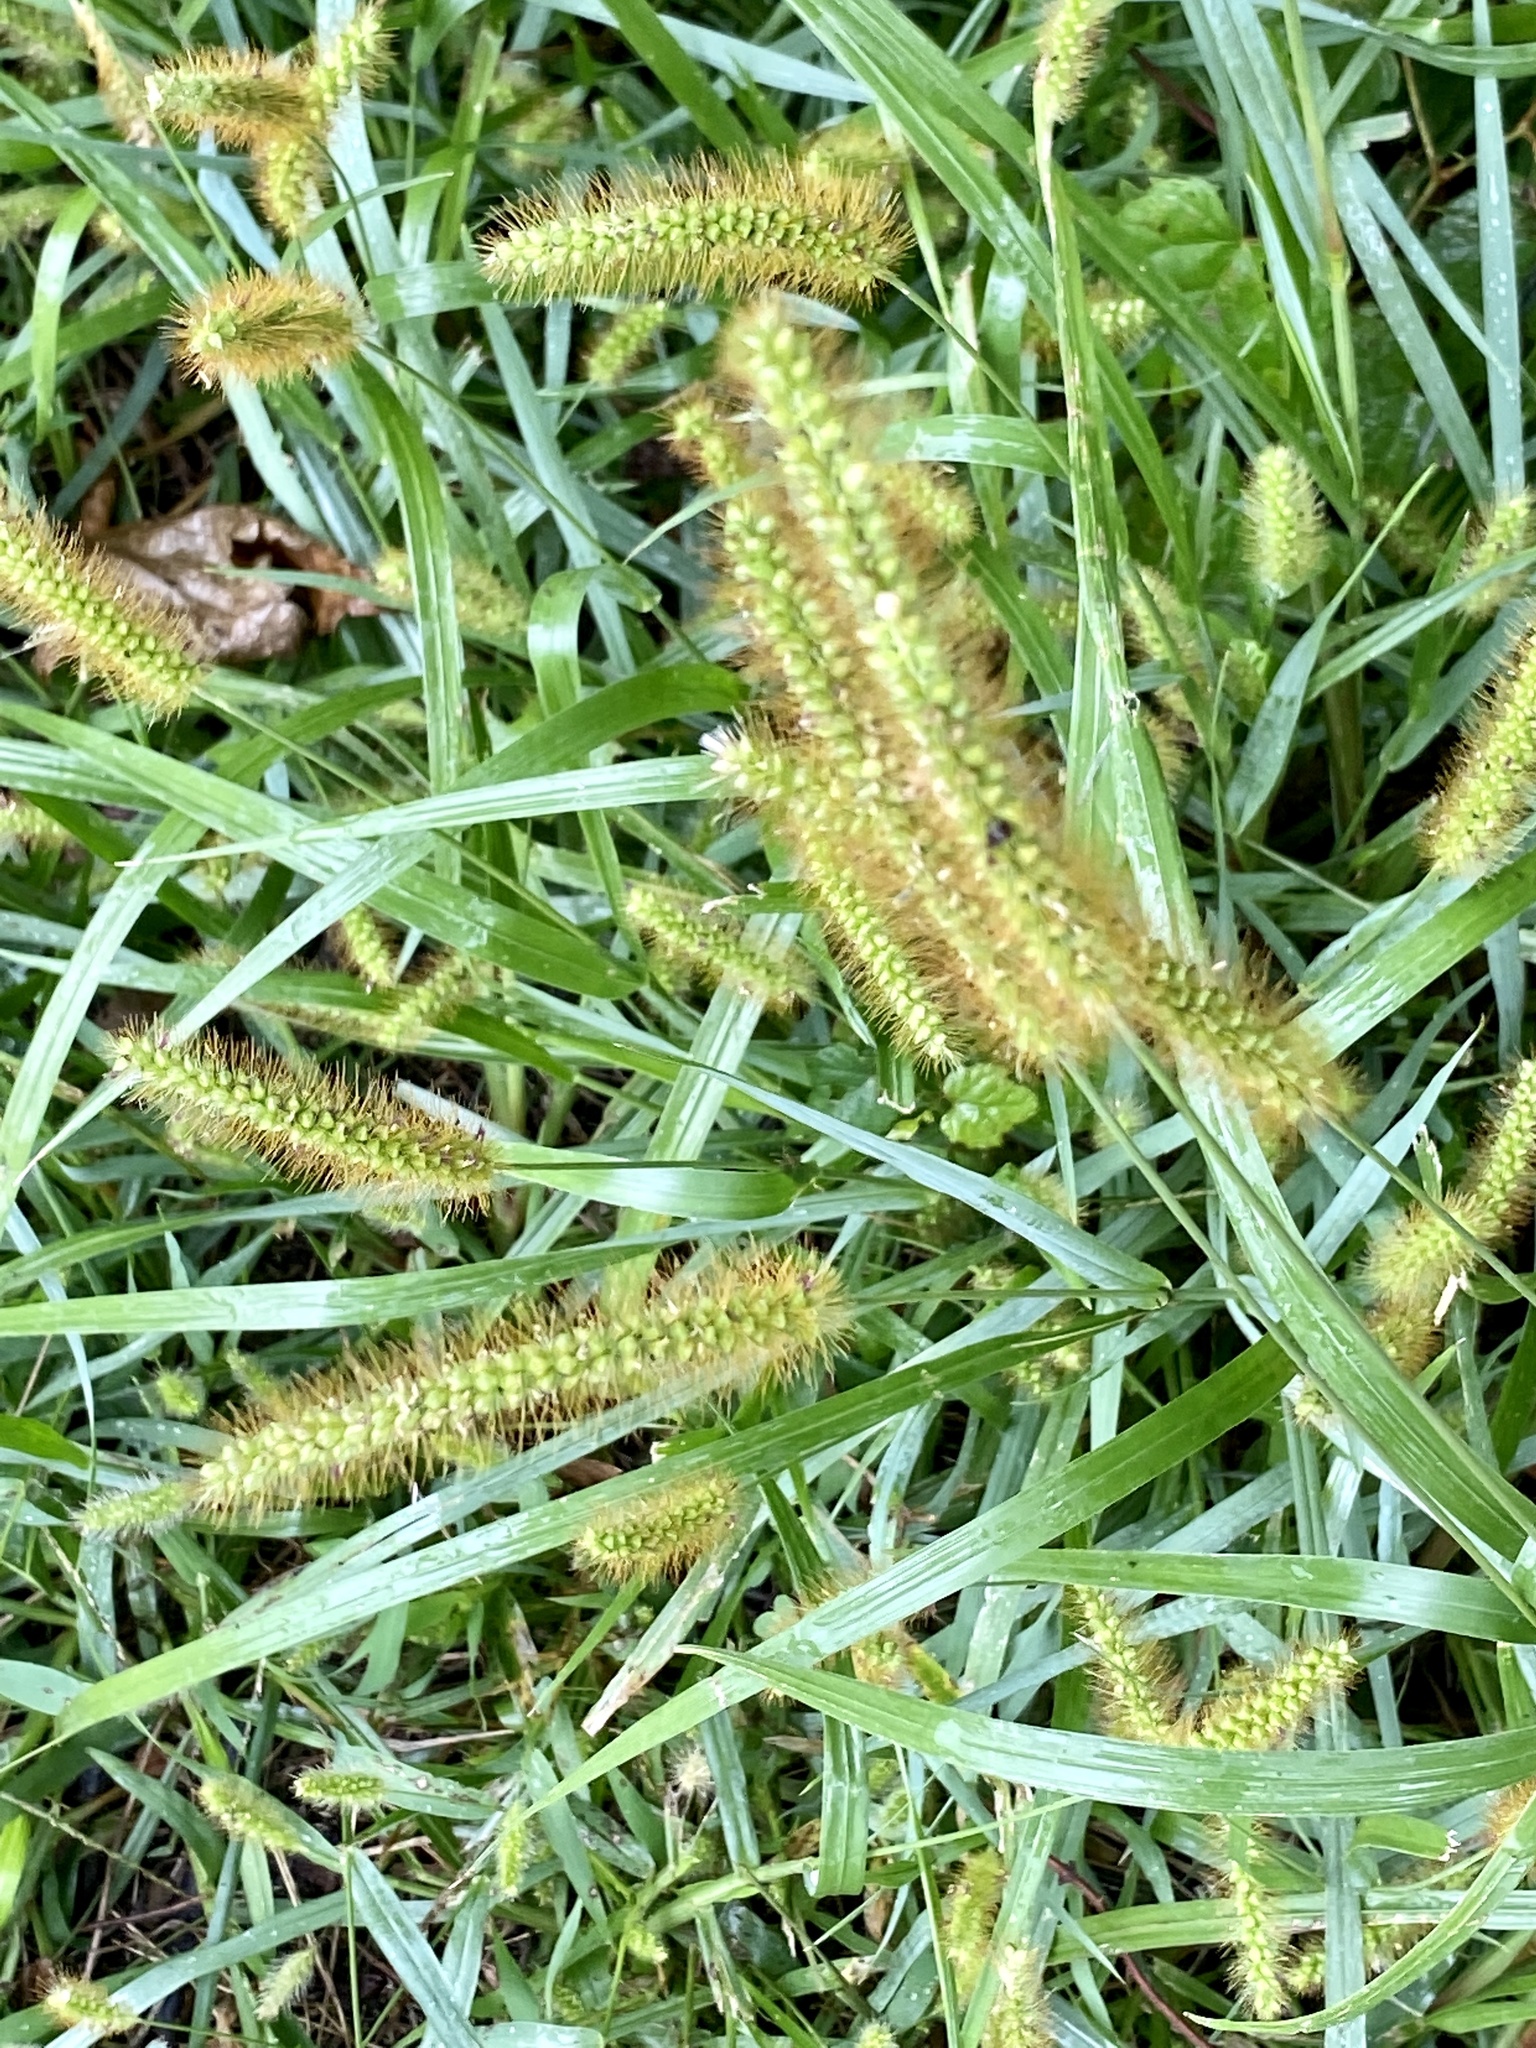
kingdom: Plantae
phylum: Tracheophyta
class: Liliopsida
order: Poales
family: Poaceae
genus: Setaria
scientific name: Setaria pumila
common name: Yellow bristle-grass
